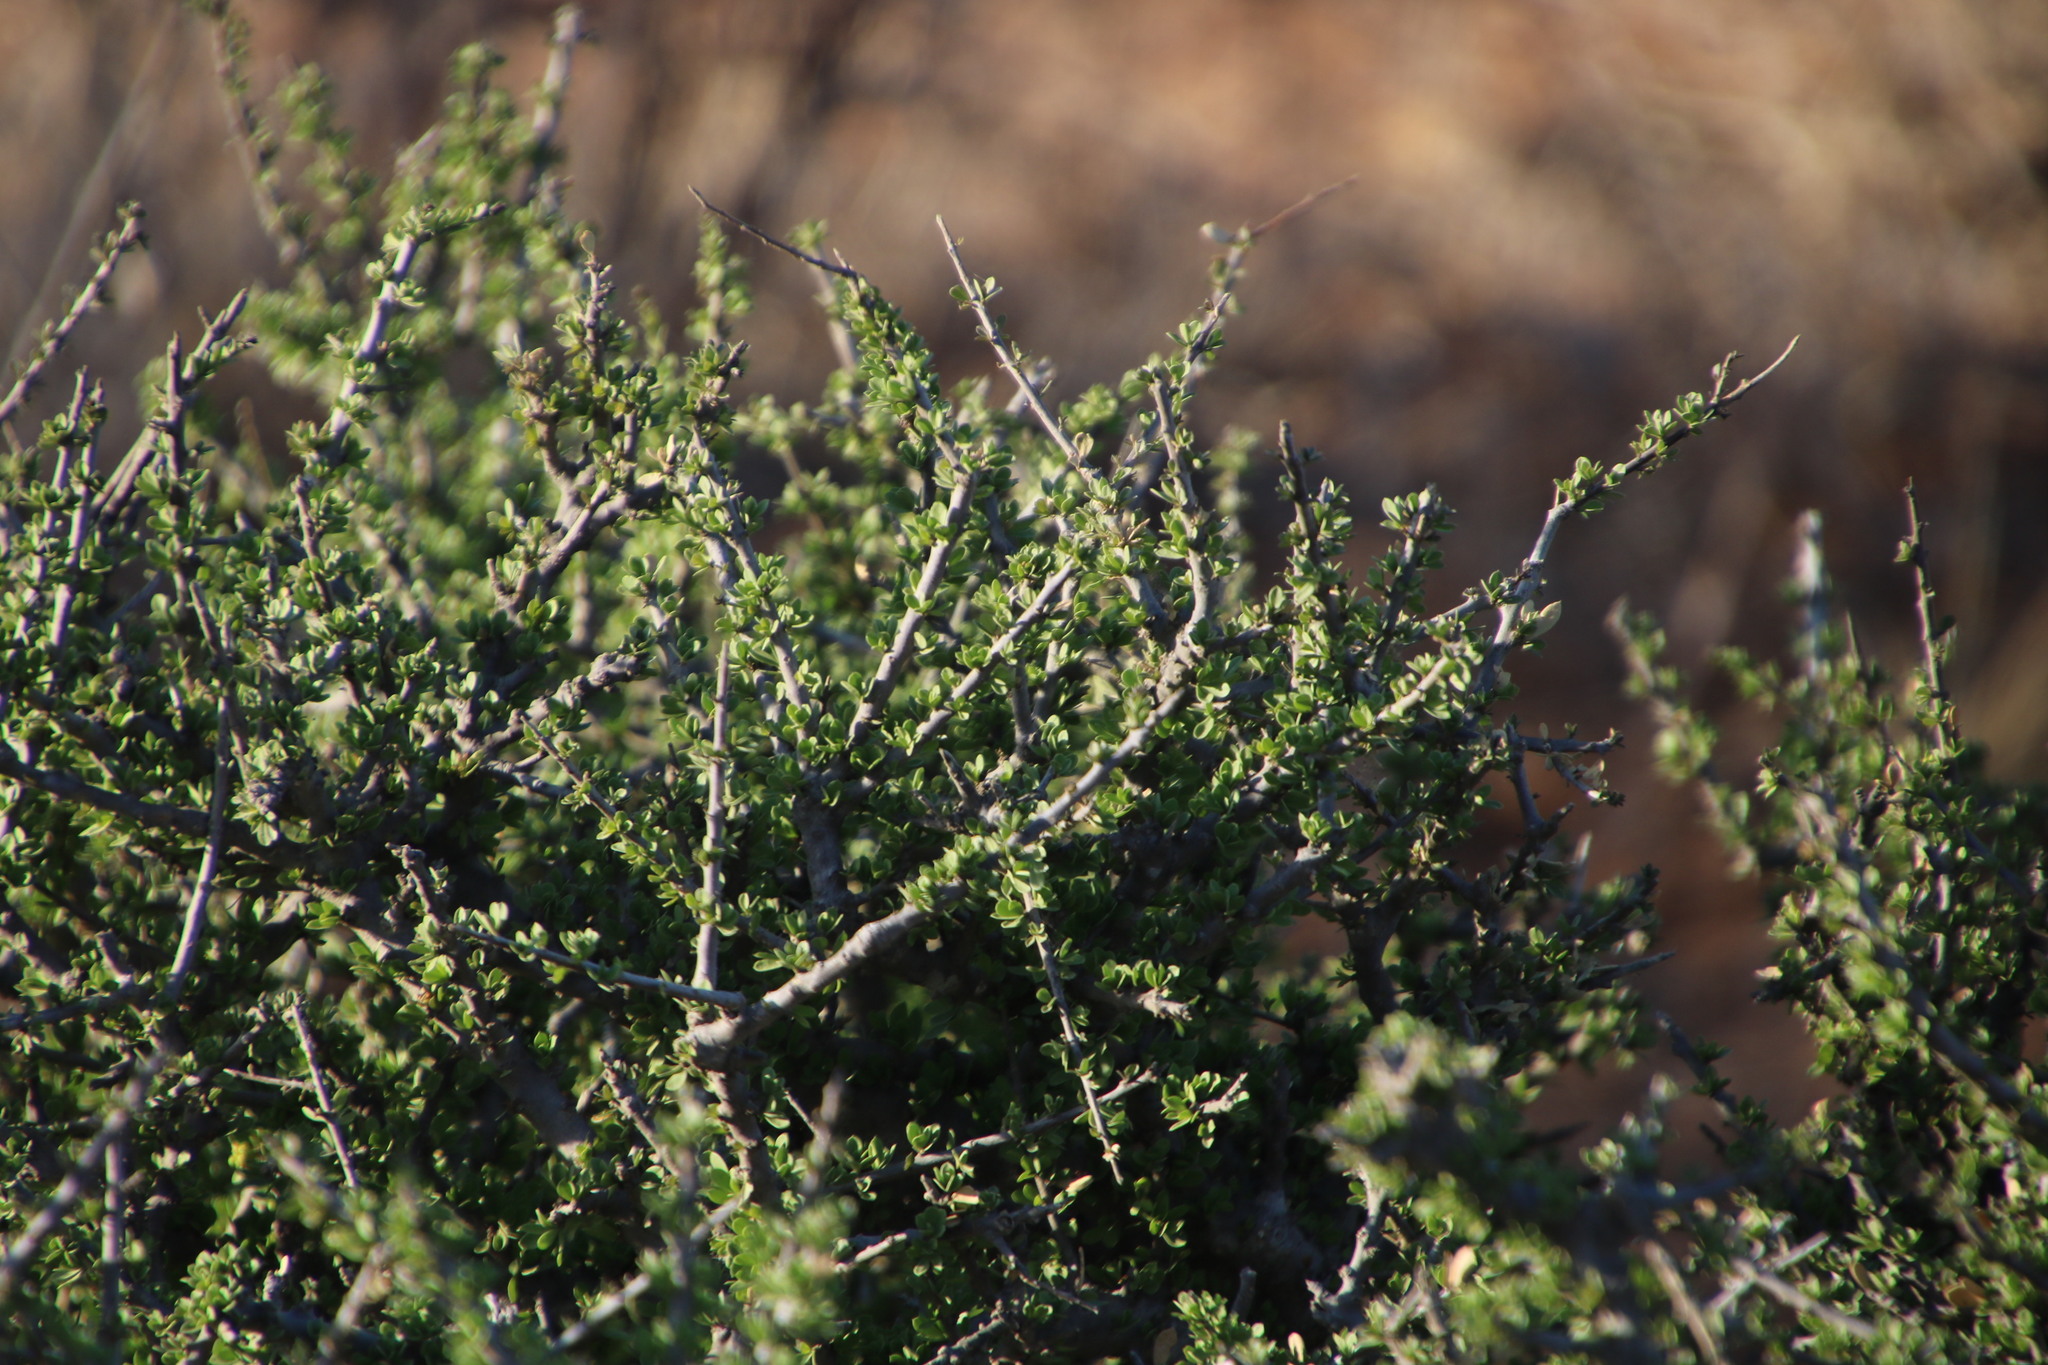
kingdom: Plantae
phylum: Tracheophyta
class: Magnoliopsida
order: Brassicales
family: Capparaceae
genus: Boscia
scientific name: Boscia foetida
